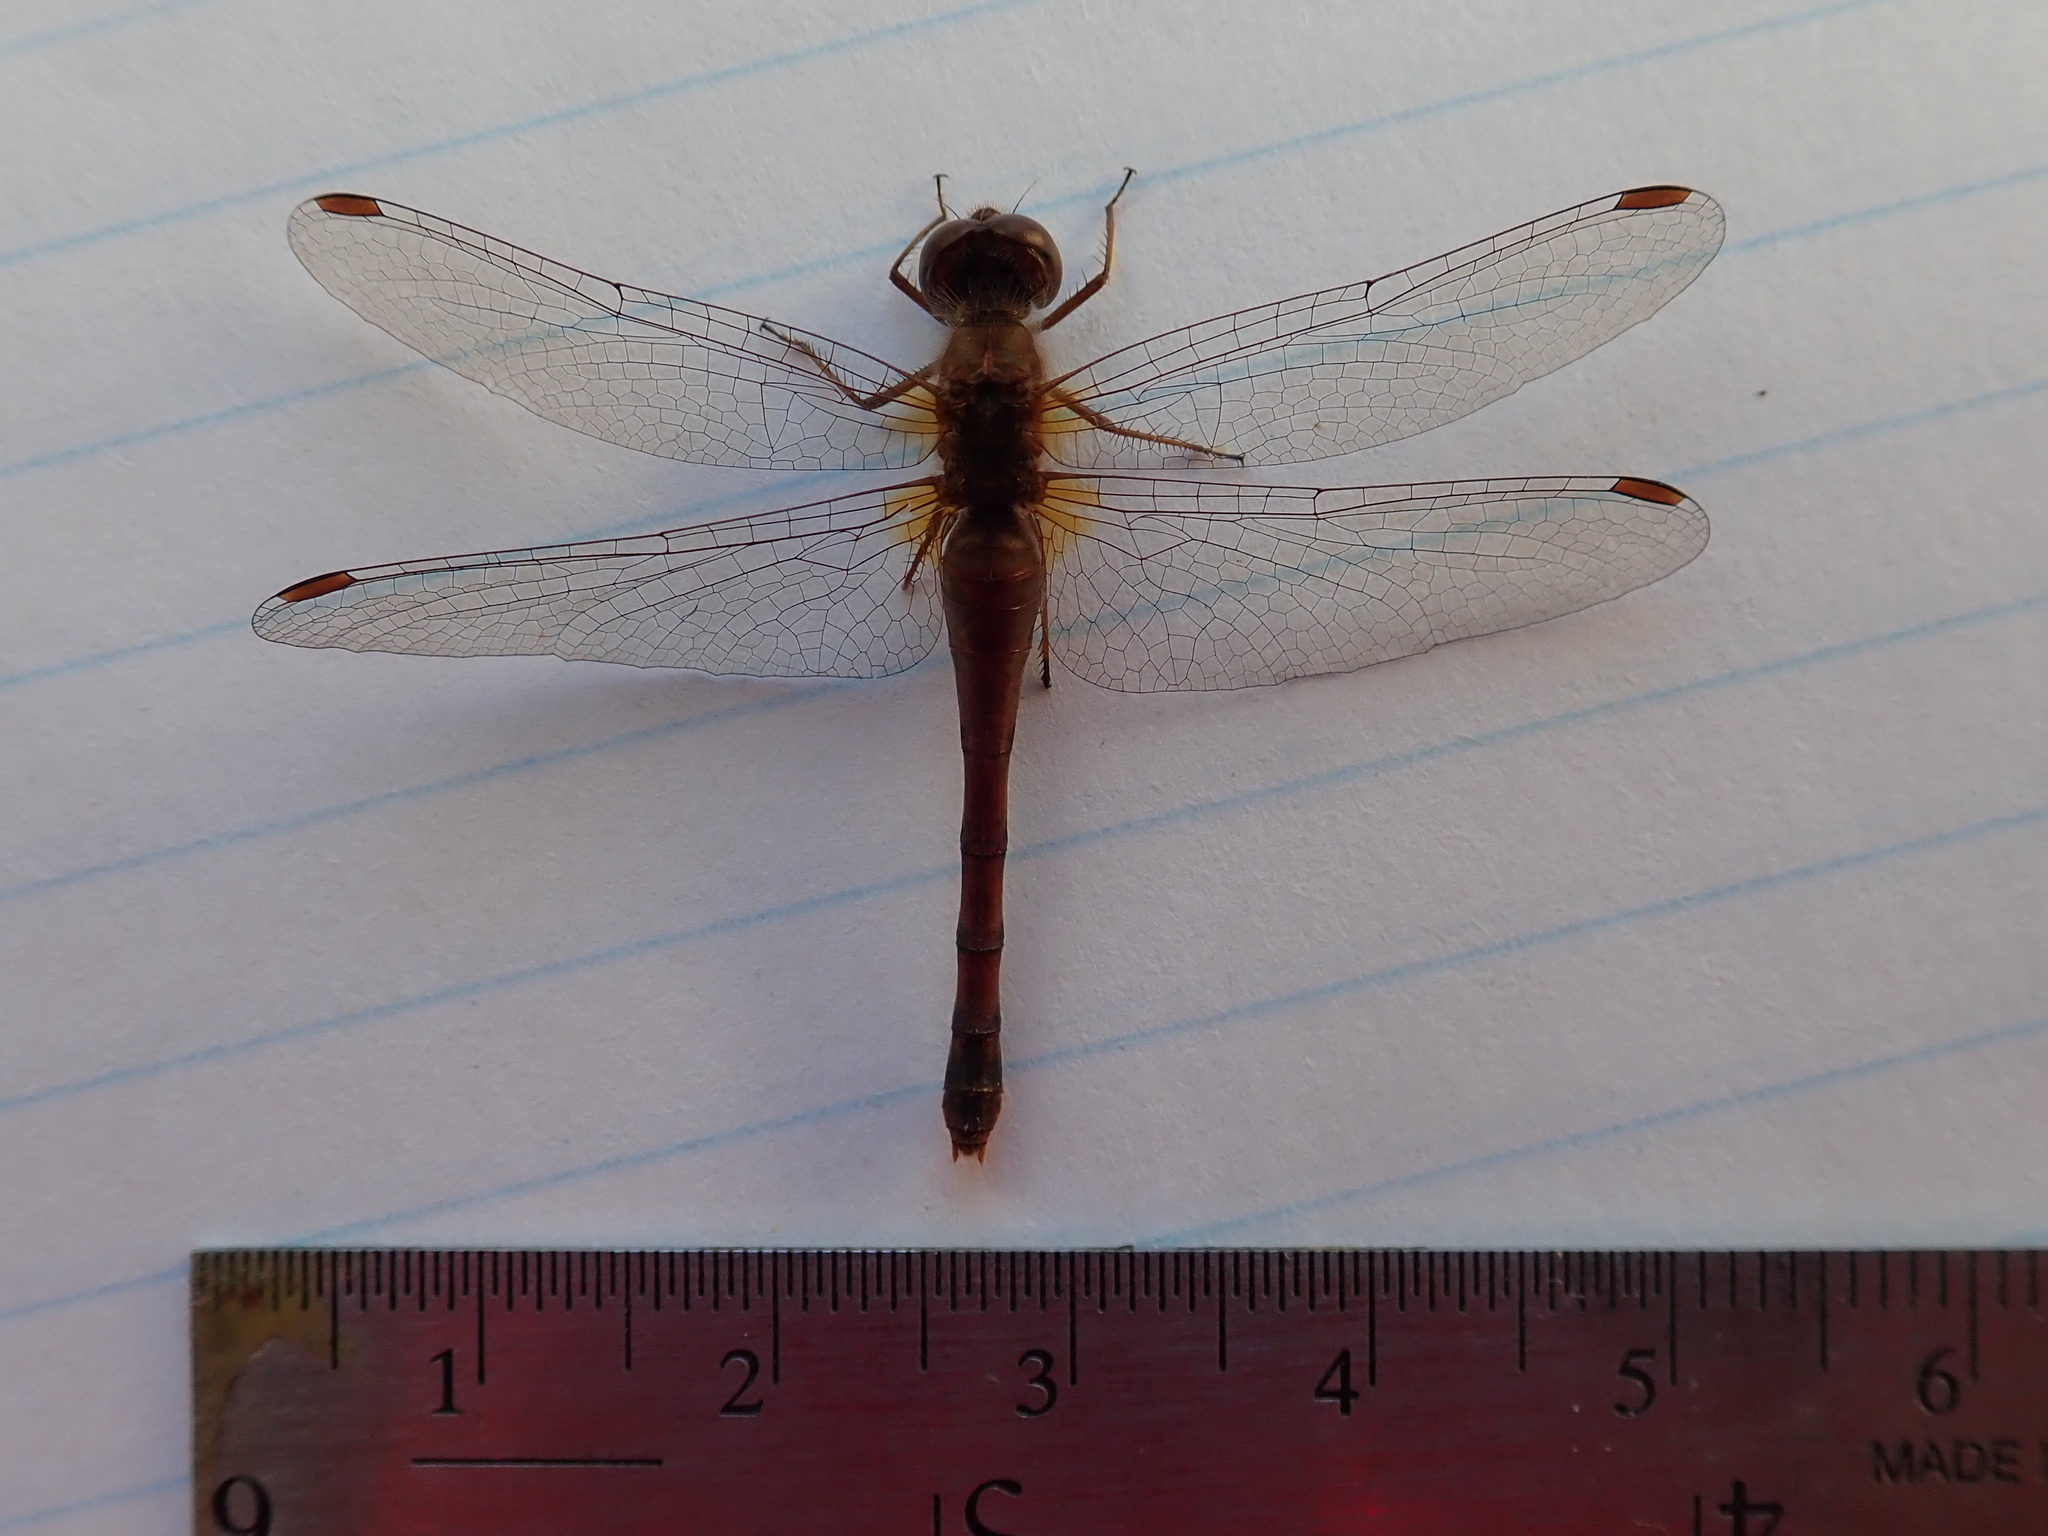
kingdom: Animalia
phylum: Arthropoda
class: Insecta
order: Odonata
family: Libellulidae
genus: Sympetrum
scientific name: Sympetrum vicinum
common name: Autumn meadowhawk
